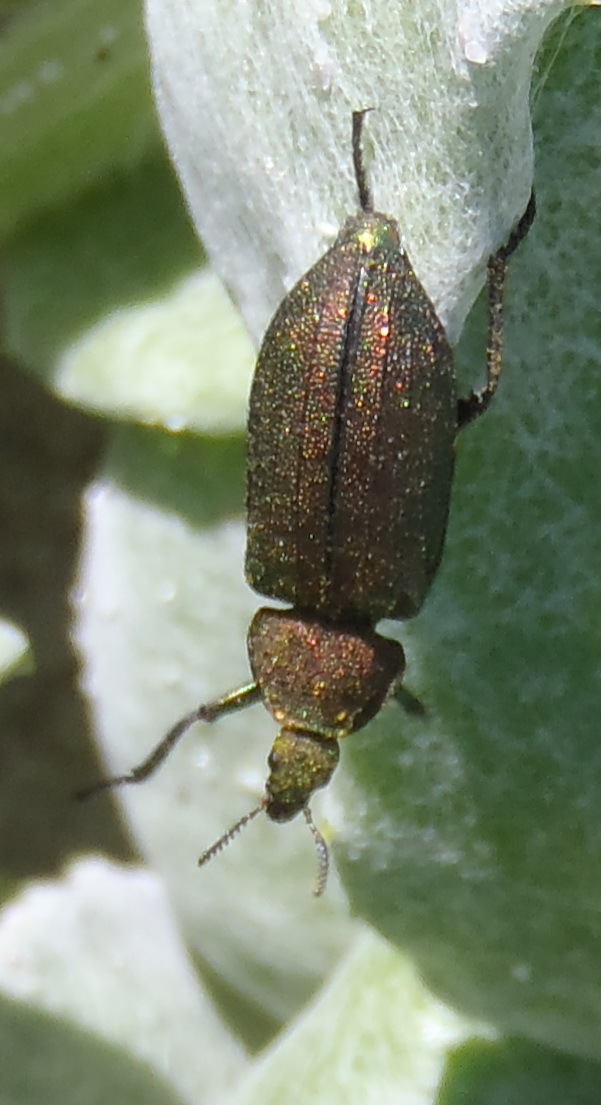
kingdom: Animalia
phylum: Arthropoda
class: Insecta
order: Coleoptera
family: Melyridae
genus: Melyris
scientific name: Melyris viridis
